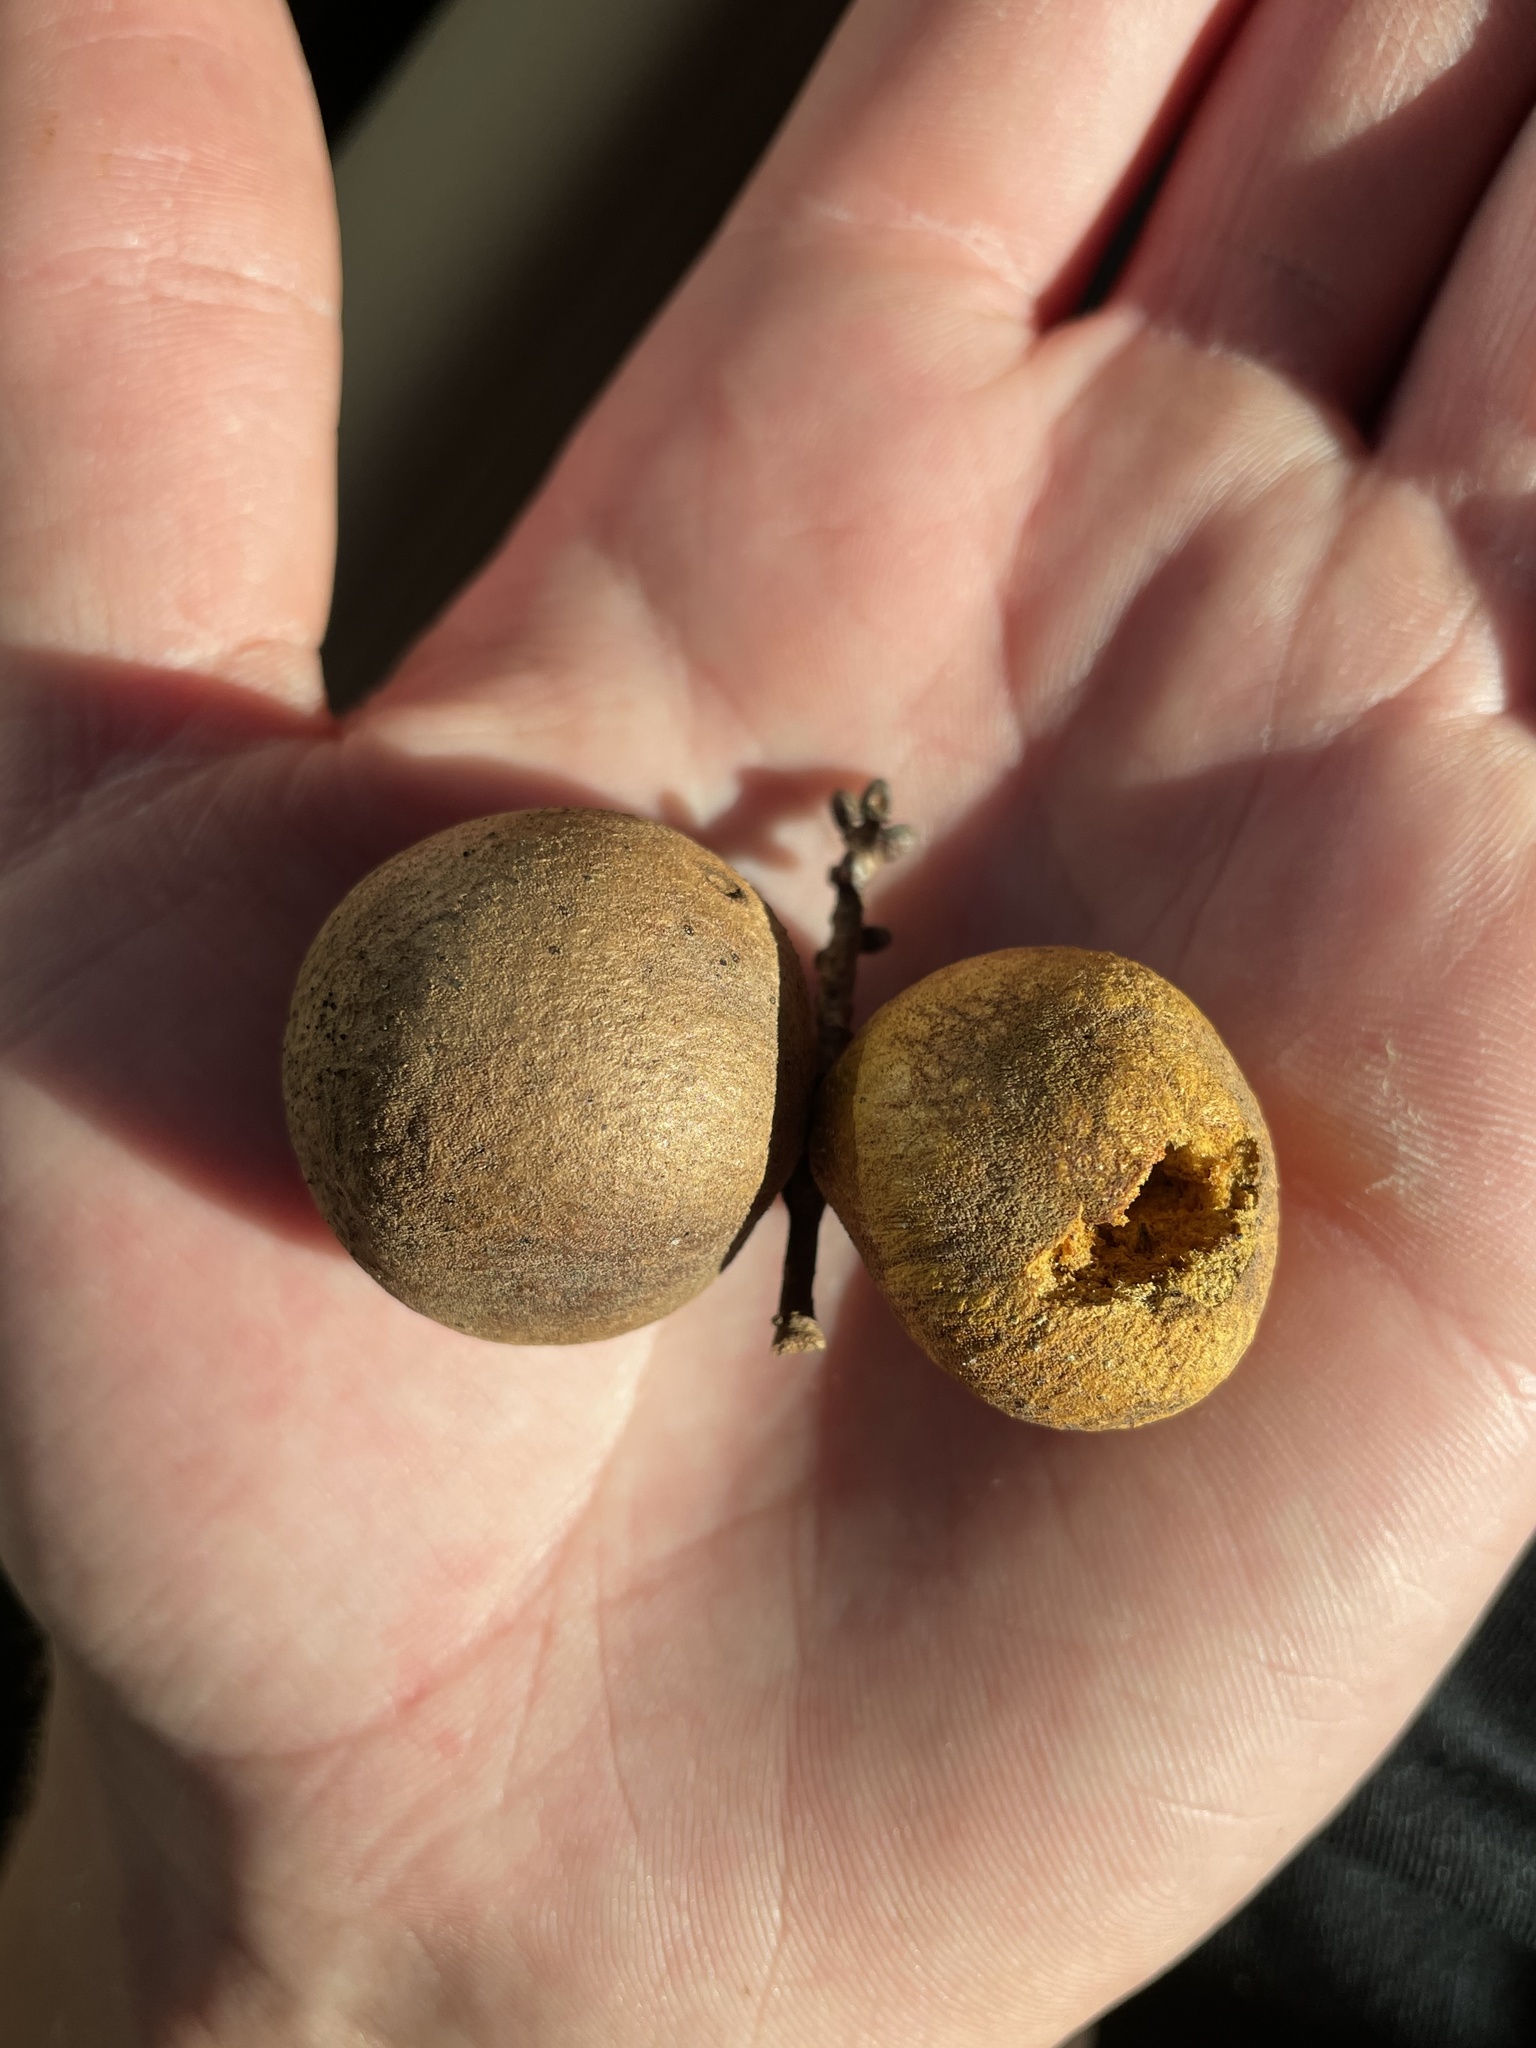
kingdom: Animalia
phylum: Arthropoda
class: Insecta
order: Hymenoptera
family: Cynipidae
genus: Disholcaspis
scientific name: Disholcaspis
